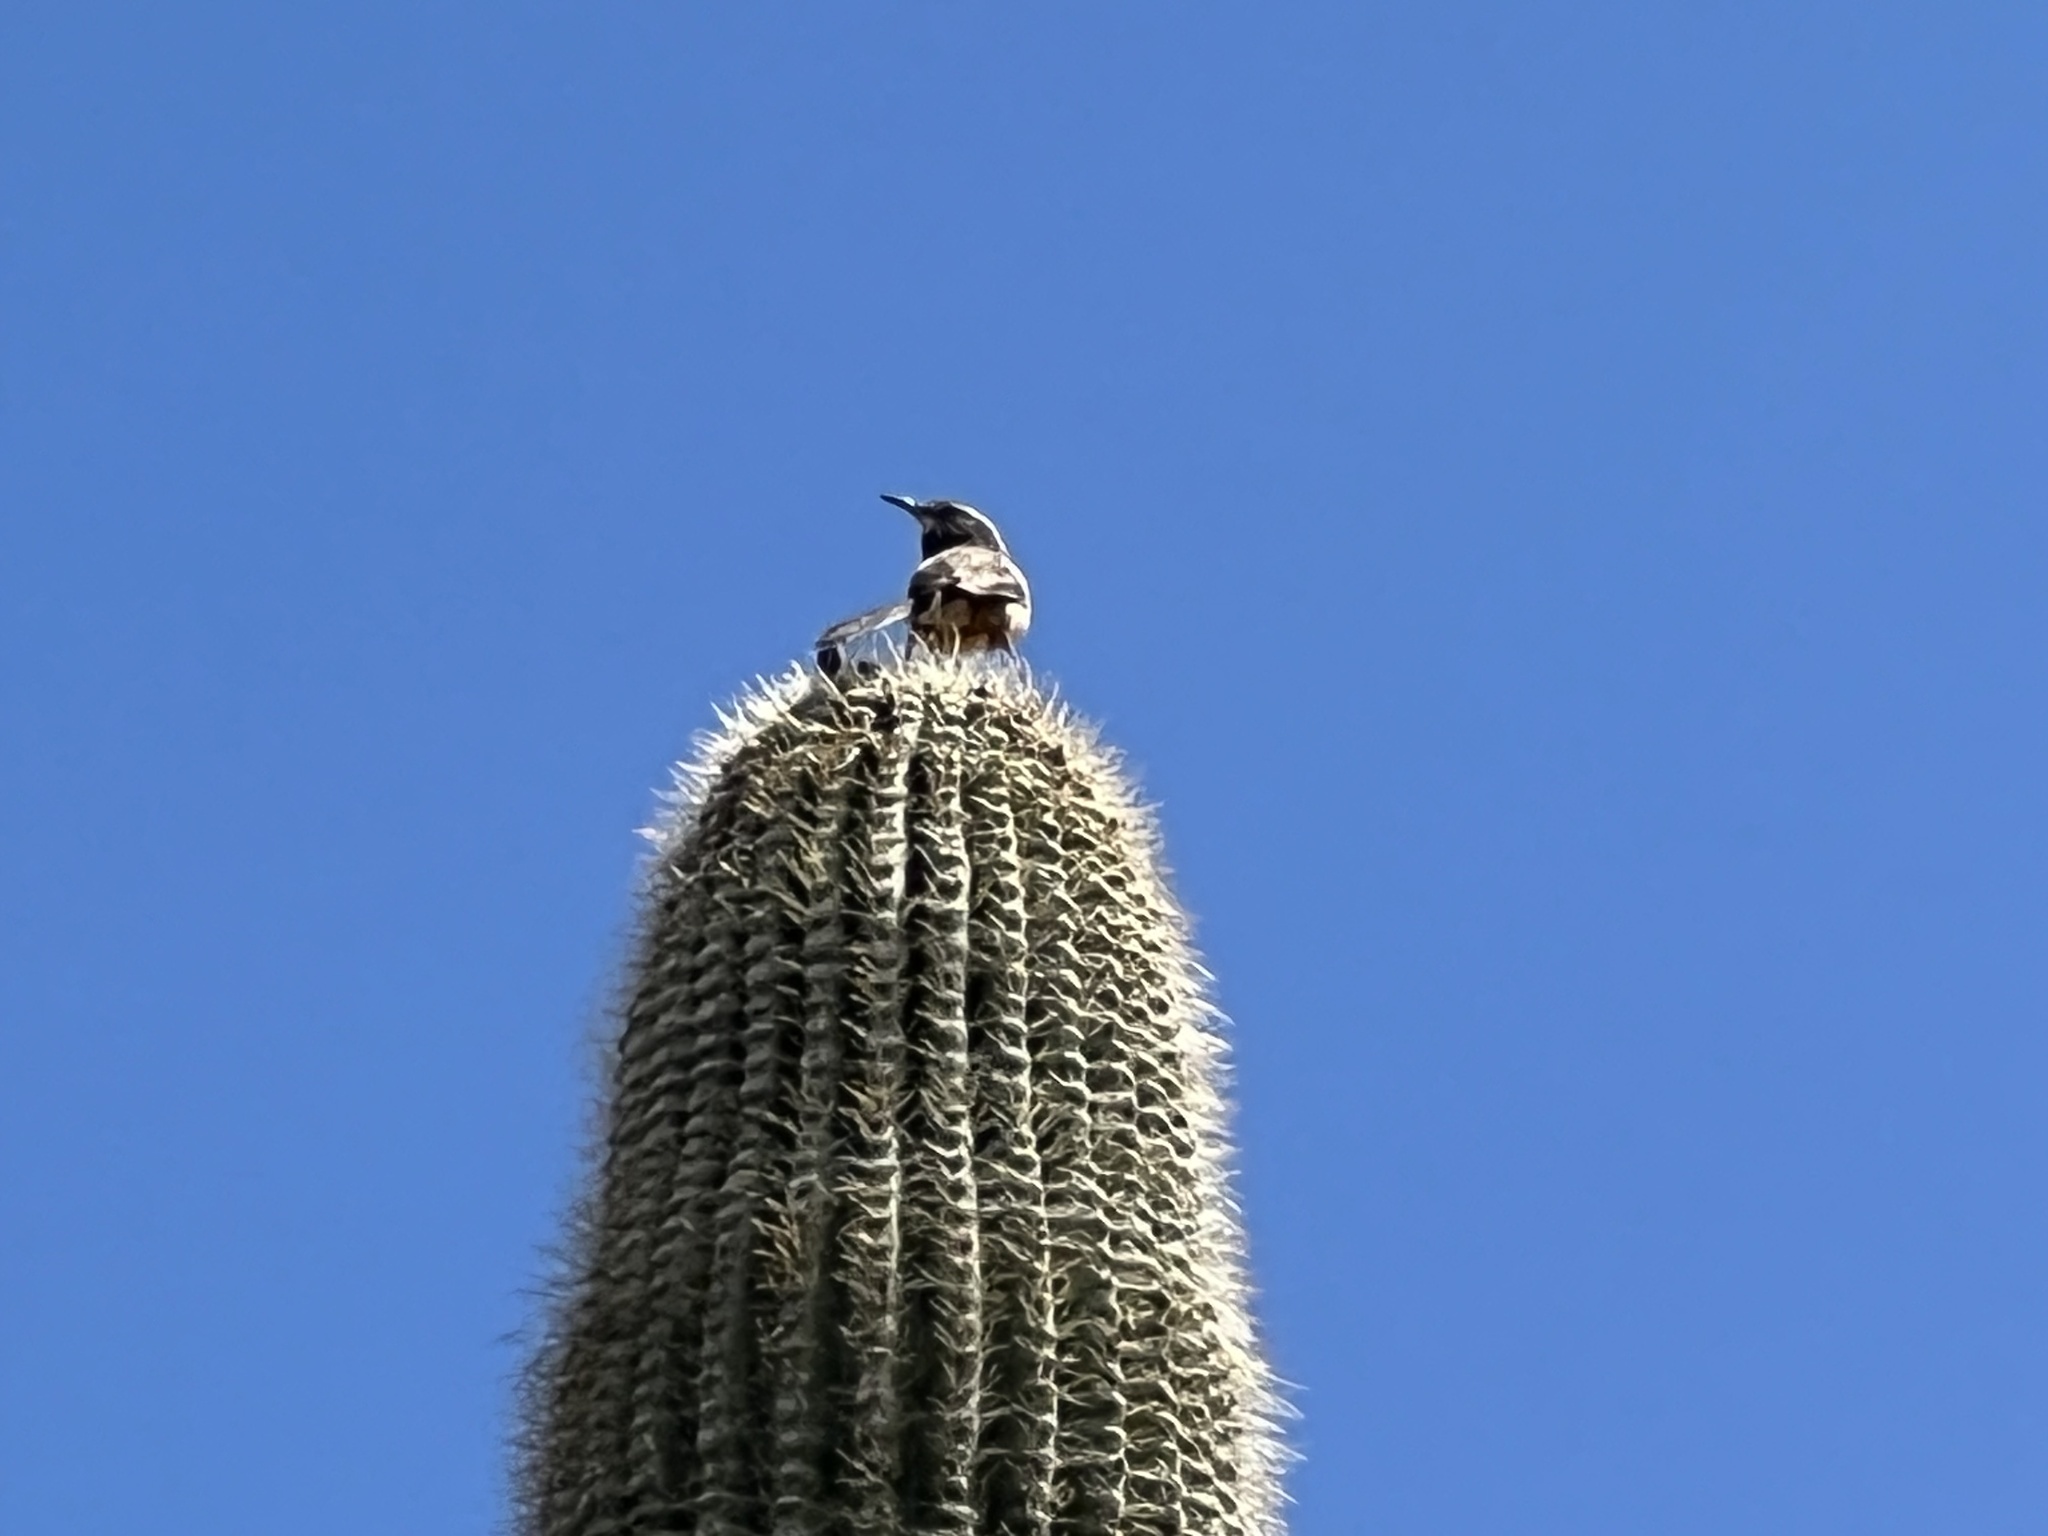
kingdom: Animalia
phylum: Chordata
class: Aves
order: Passeriformes
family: Troglodytidae
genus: Campylorhynchus
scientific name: Campylorhynchus brunneicapillus
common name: Cactus wren
